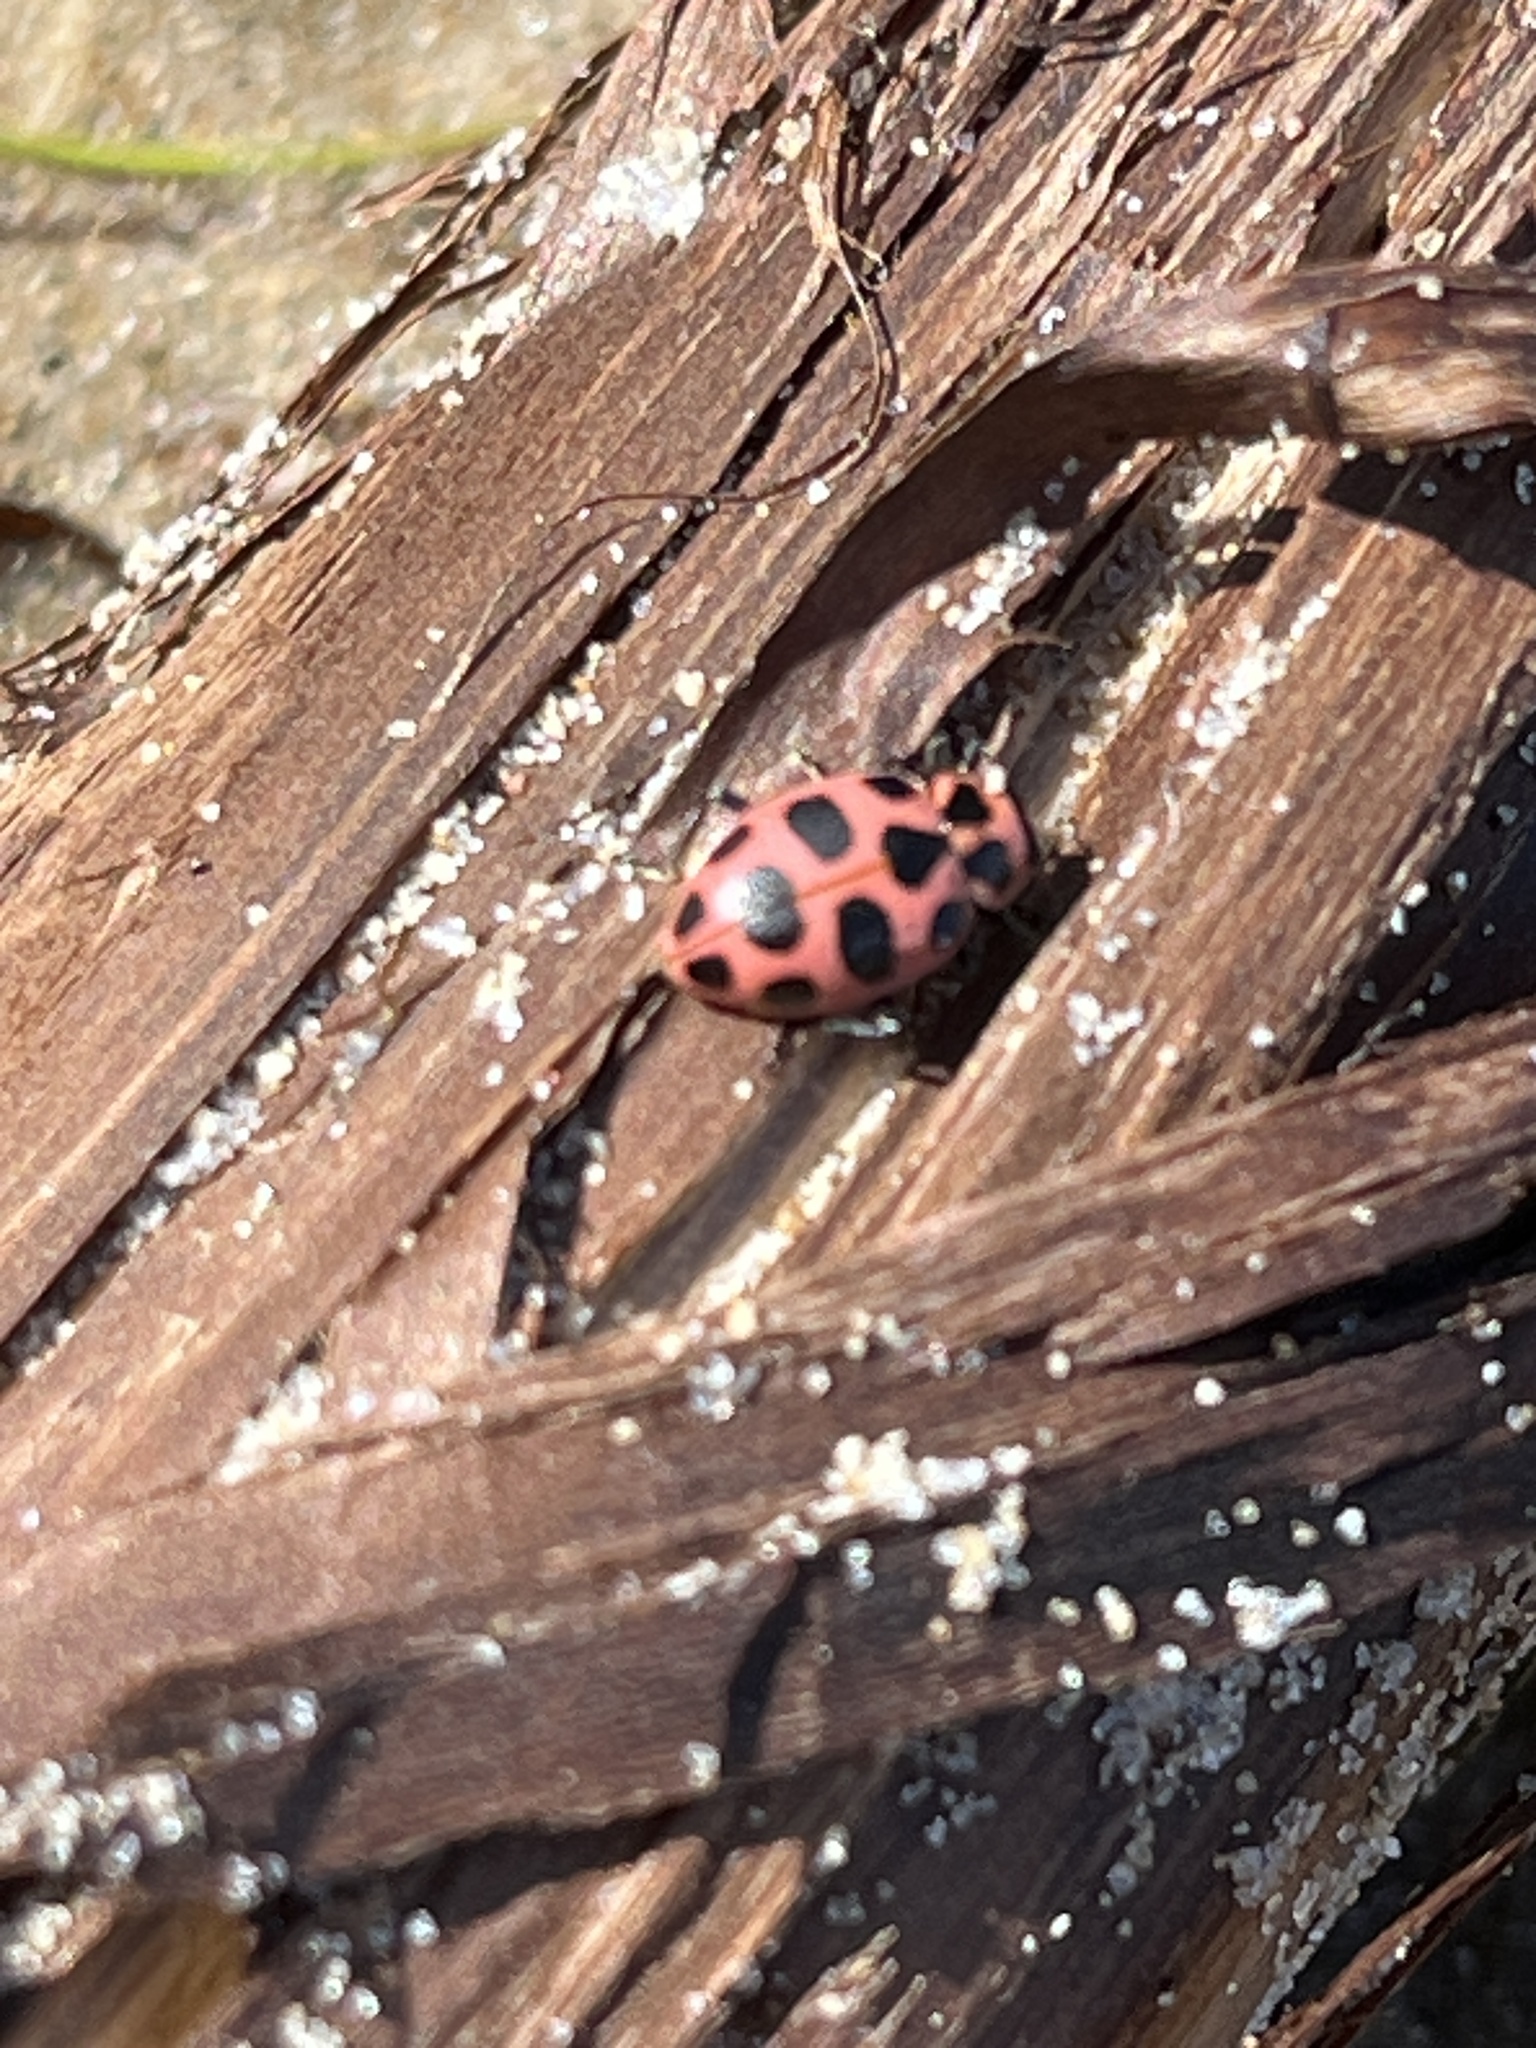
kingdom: Animalia
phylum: Arthropoda
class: Insecta
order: Coleoptera
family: Coccinellidae
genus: Coleomegilla
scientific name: Coleomegilla maculata
